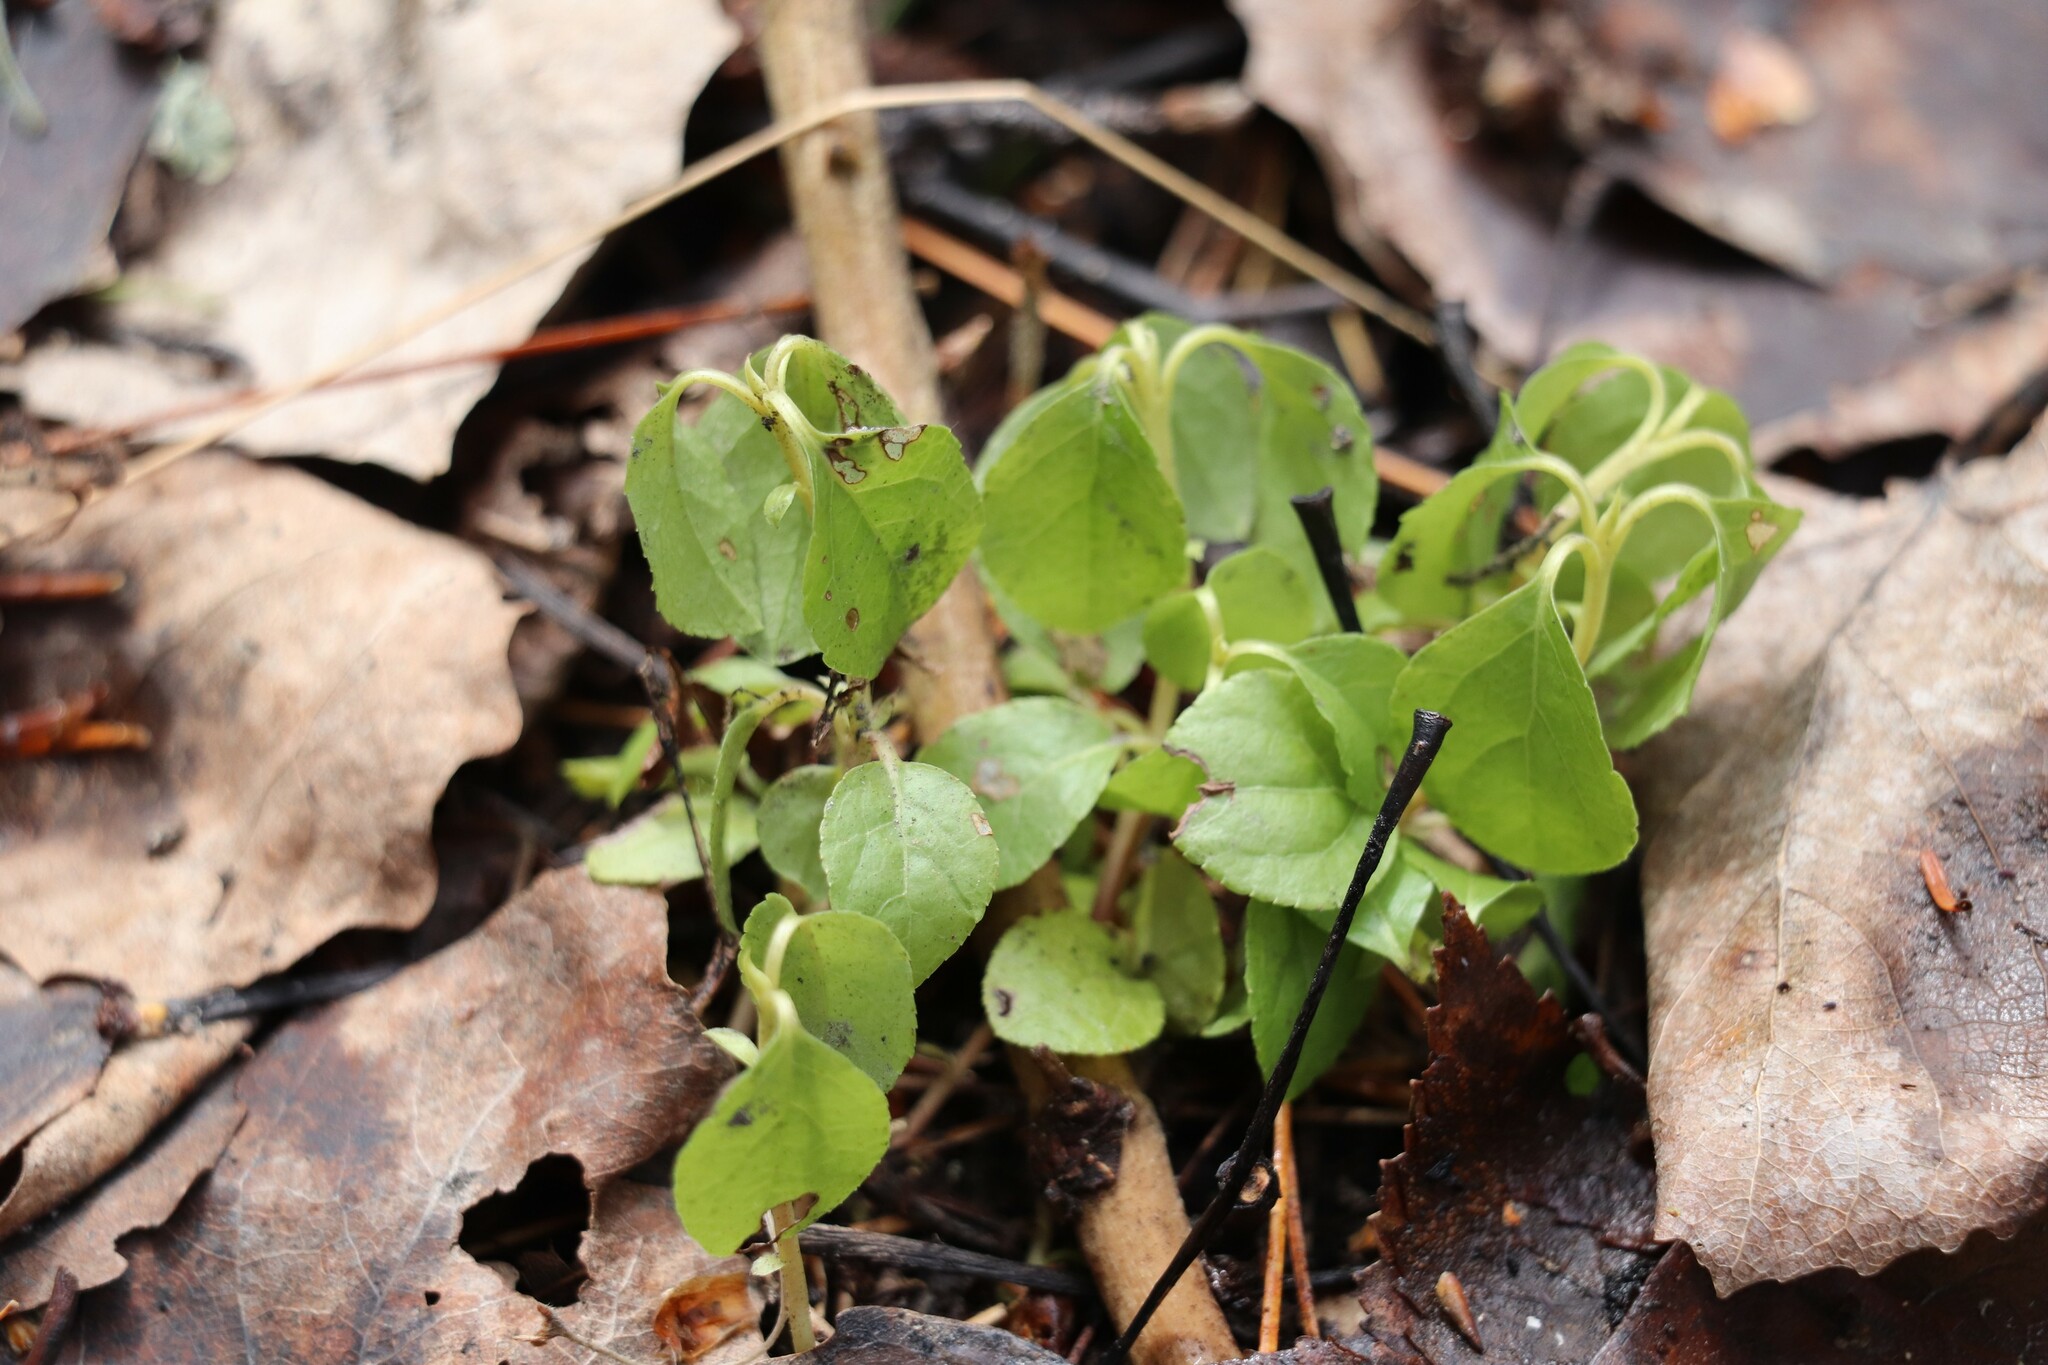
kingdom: Plantae
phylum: Tracheophyta
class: Magnoliopsida
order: Ericales
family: Ericaceae
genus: Orthilia
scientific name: Orthilia secunda
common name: One-sided orthilia
